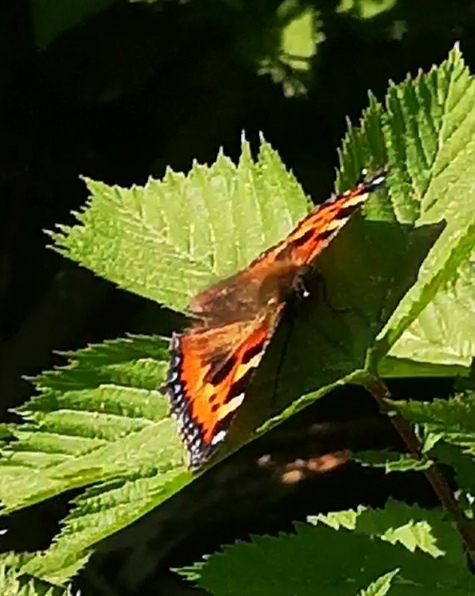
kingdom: Animalia
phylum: Arthropoda
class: Insecta
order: Lepidoptera
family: Nymphalidae
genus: Aglais
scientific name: Aglais urticae
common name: Small tortoiseshell
